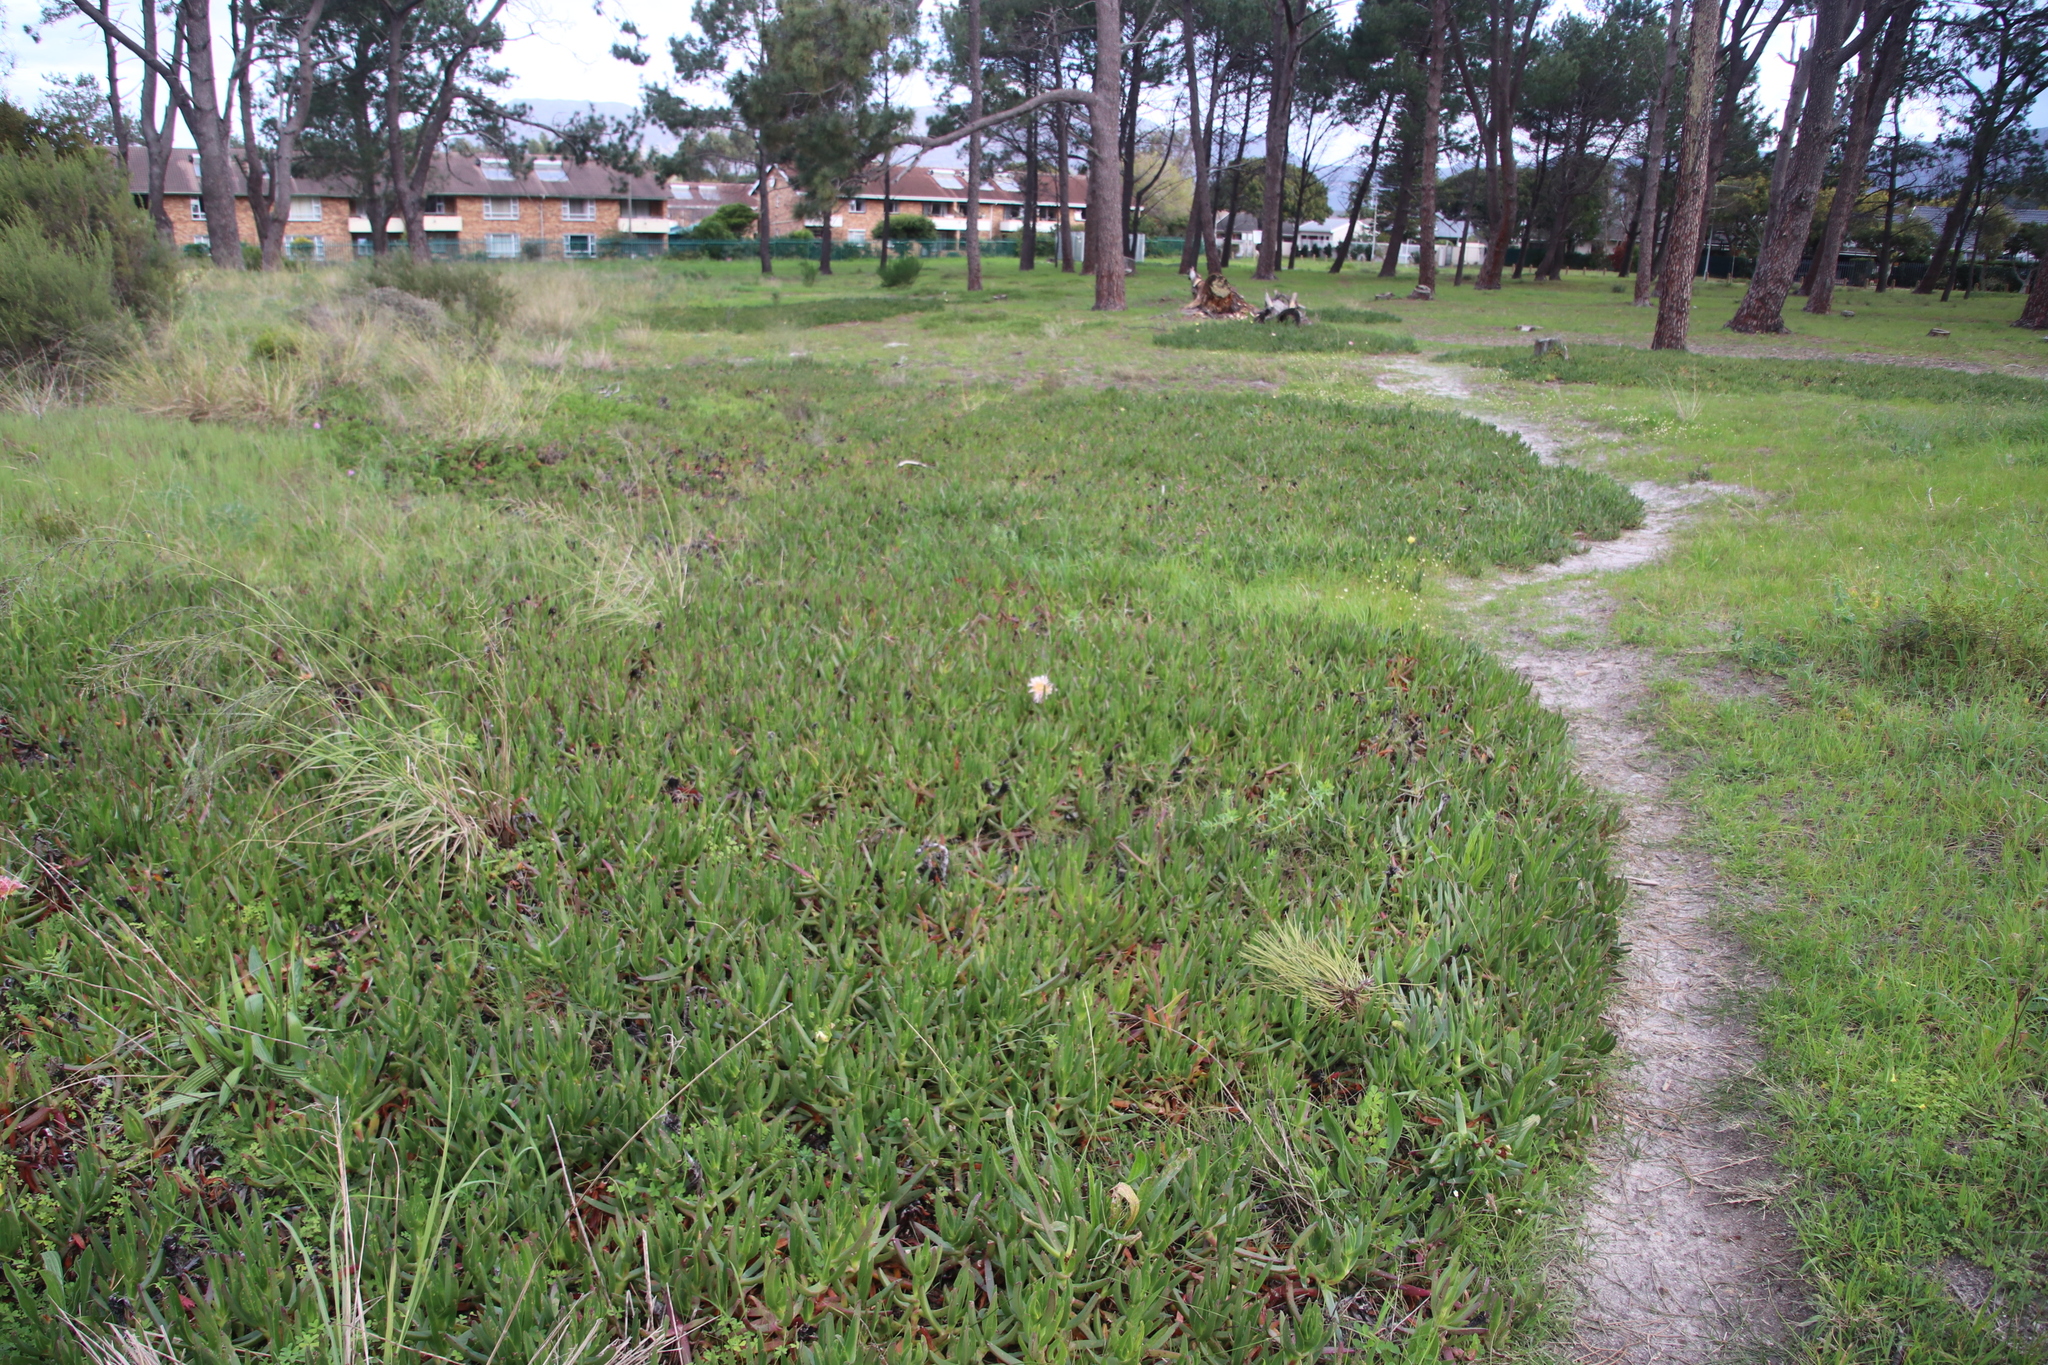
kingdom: Plantae
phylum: Tracheophyta
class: Magnoliopsida
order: Caryophyllales
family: Aizoaceae
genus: Carpobrotus
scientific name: Carpobrotus edulis
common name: Hottentot-fig
